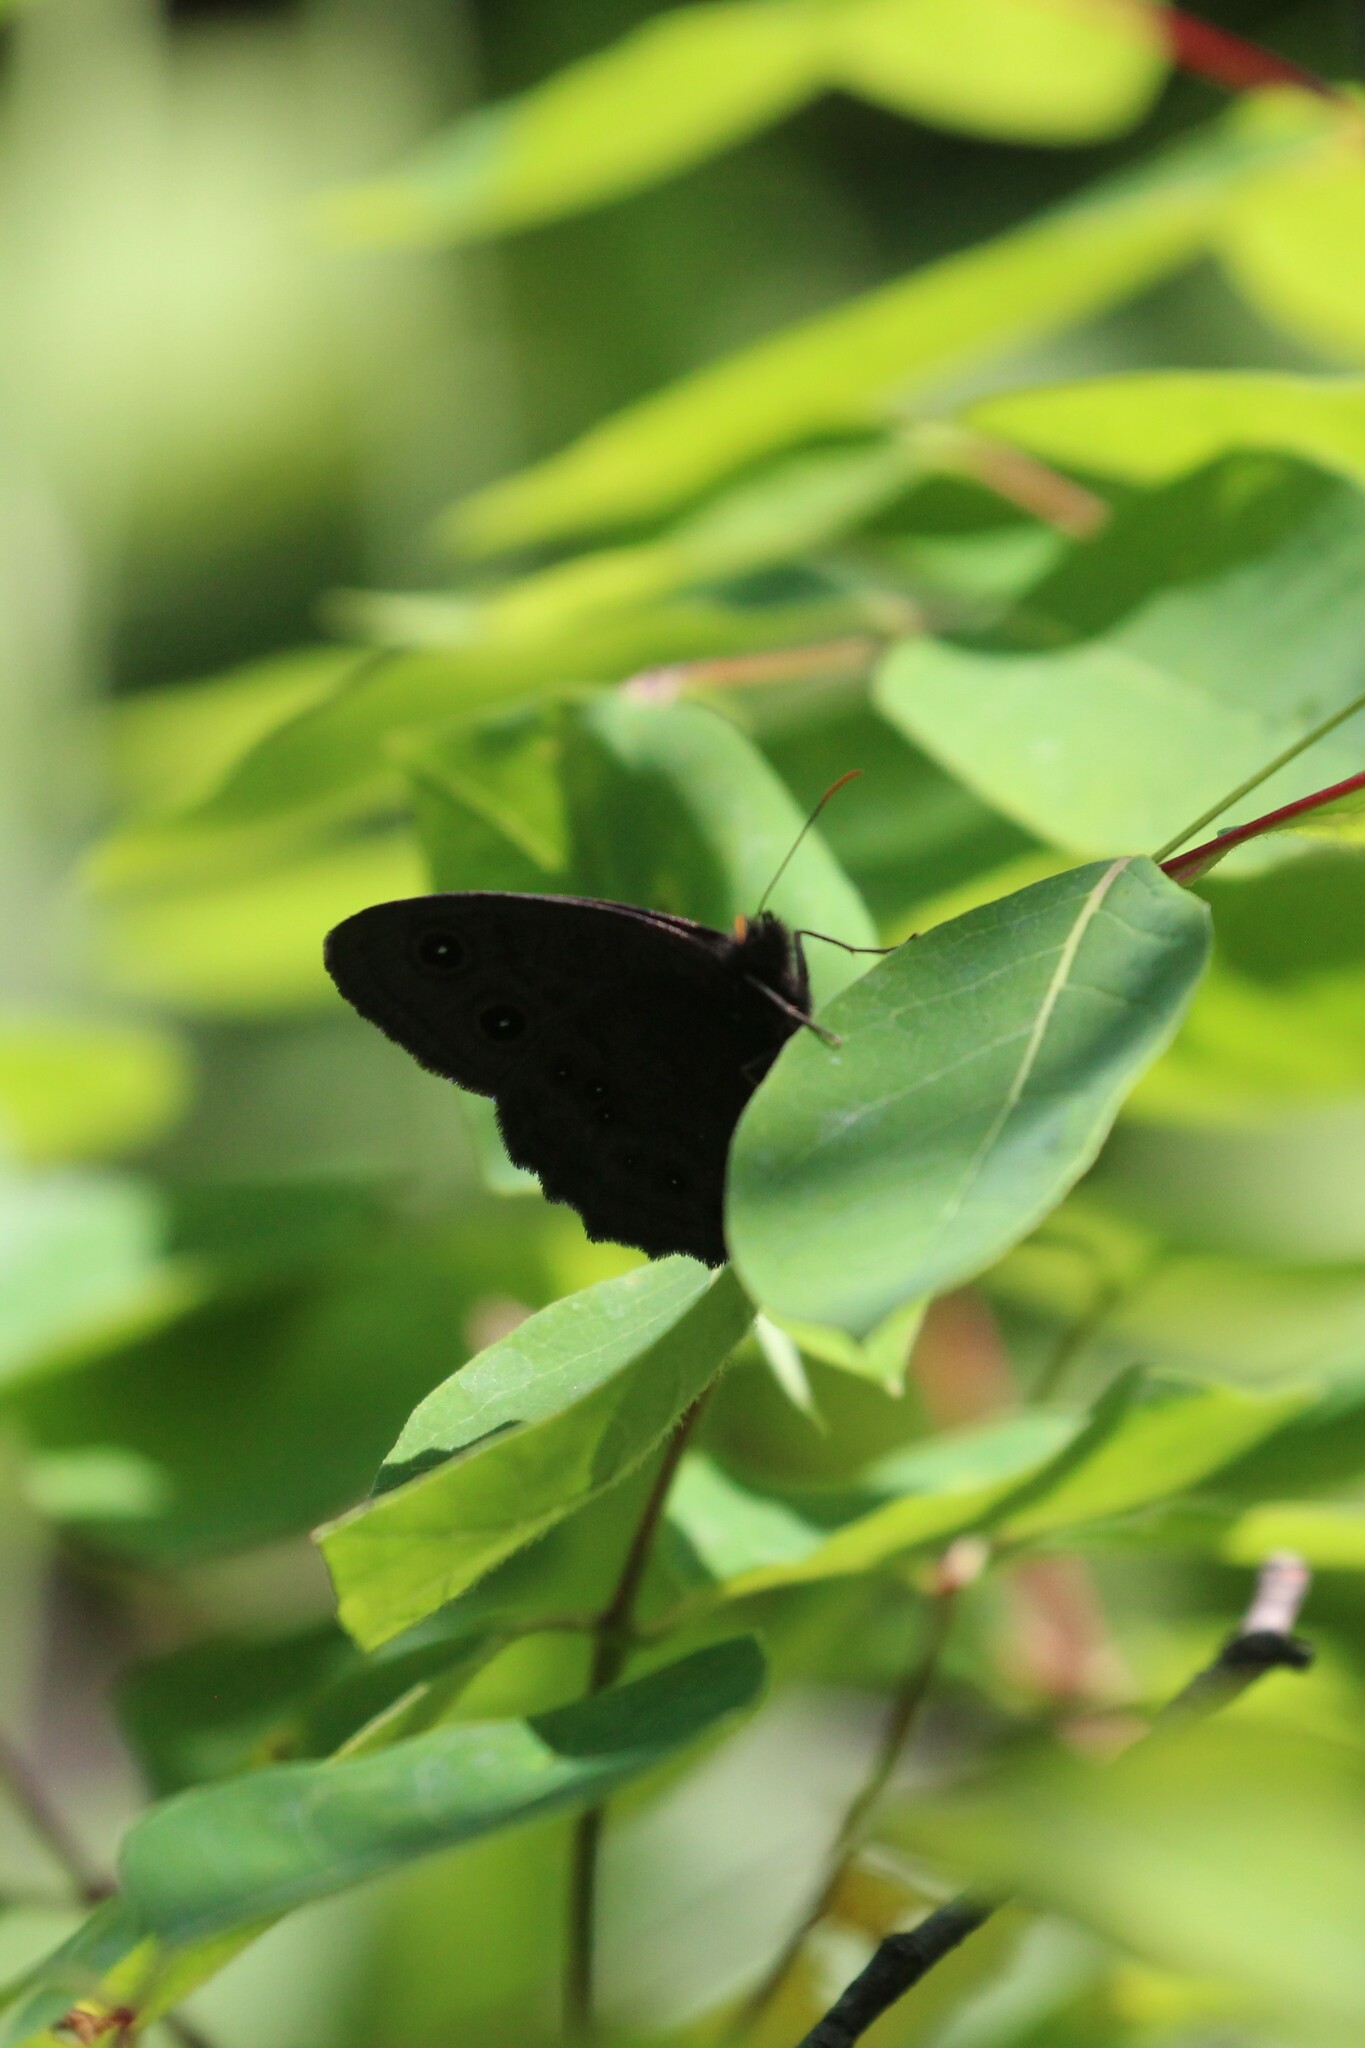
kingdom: Animalia
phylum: Arthropoda
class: Insecta
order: Lepidoptera
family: Nymphalidae
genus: Cercyonis
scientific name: Cercyonis pegala
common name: Common wood-nymph
